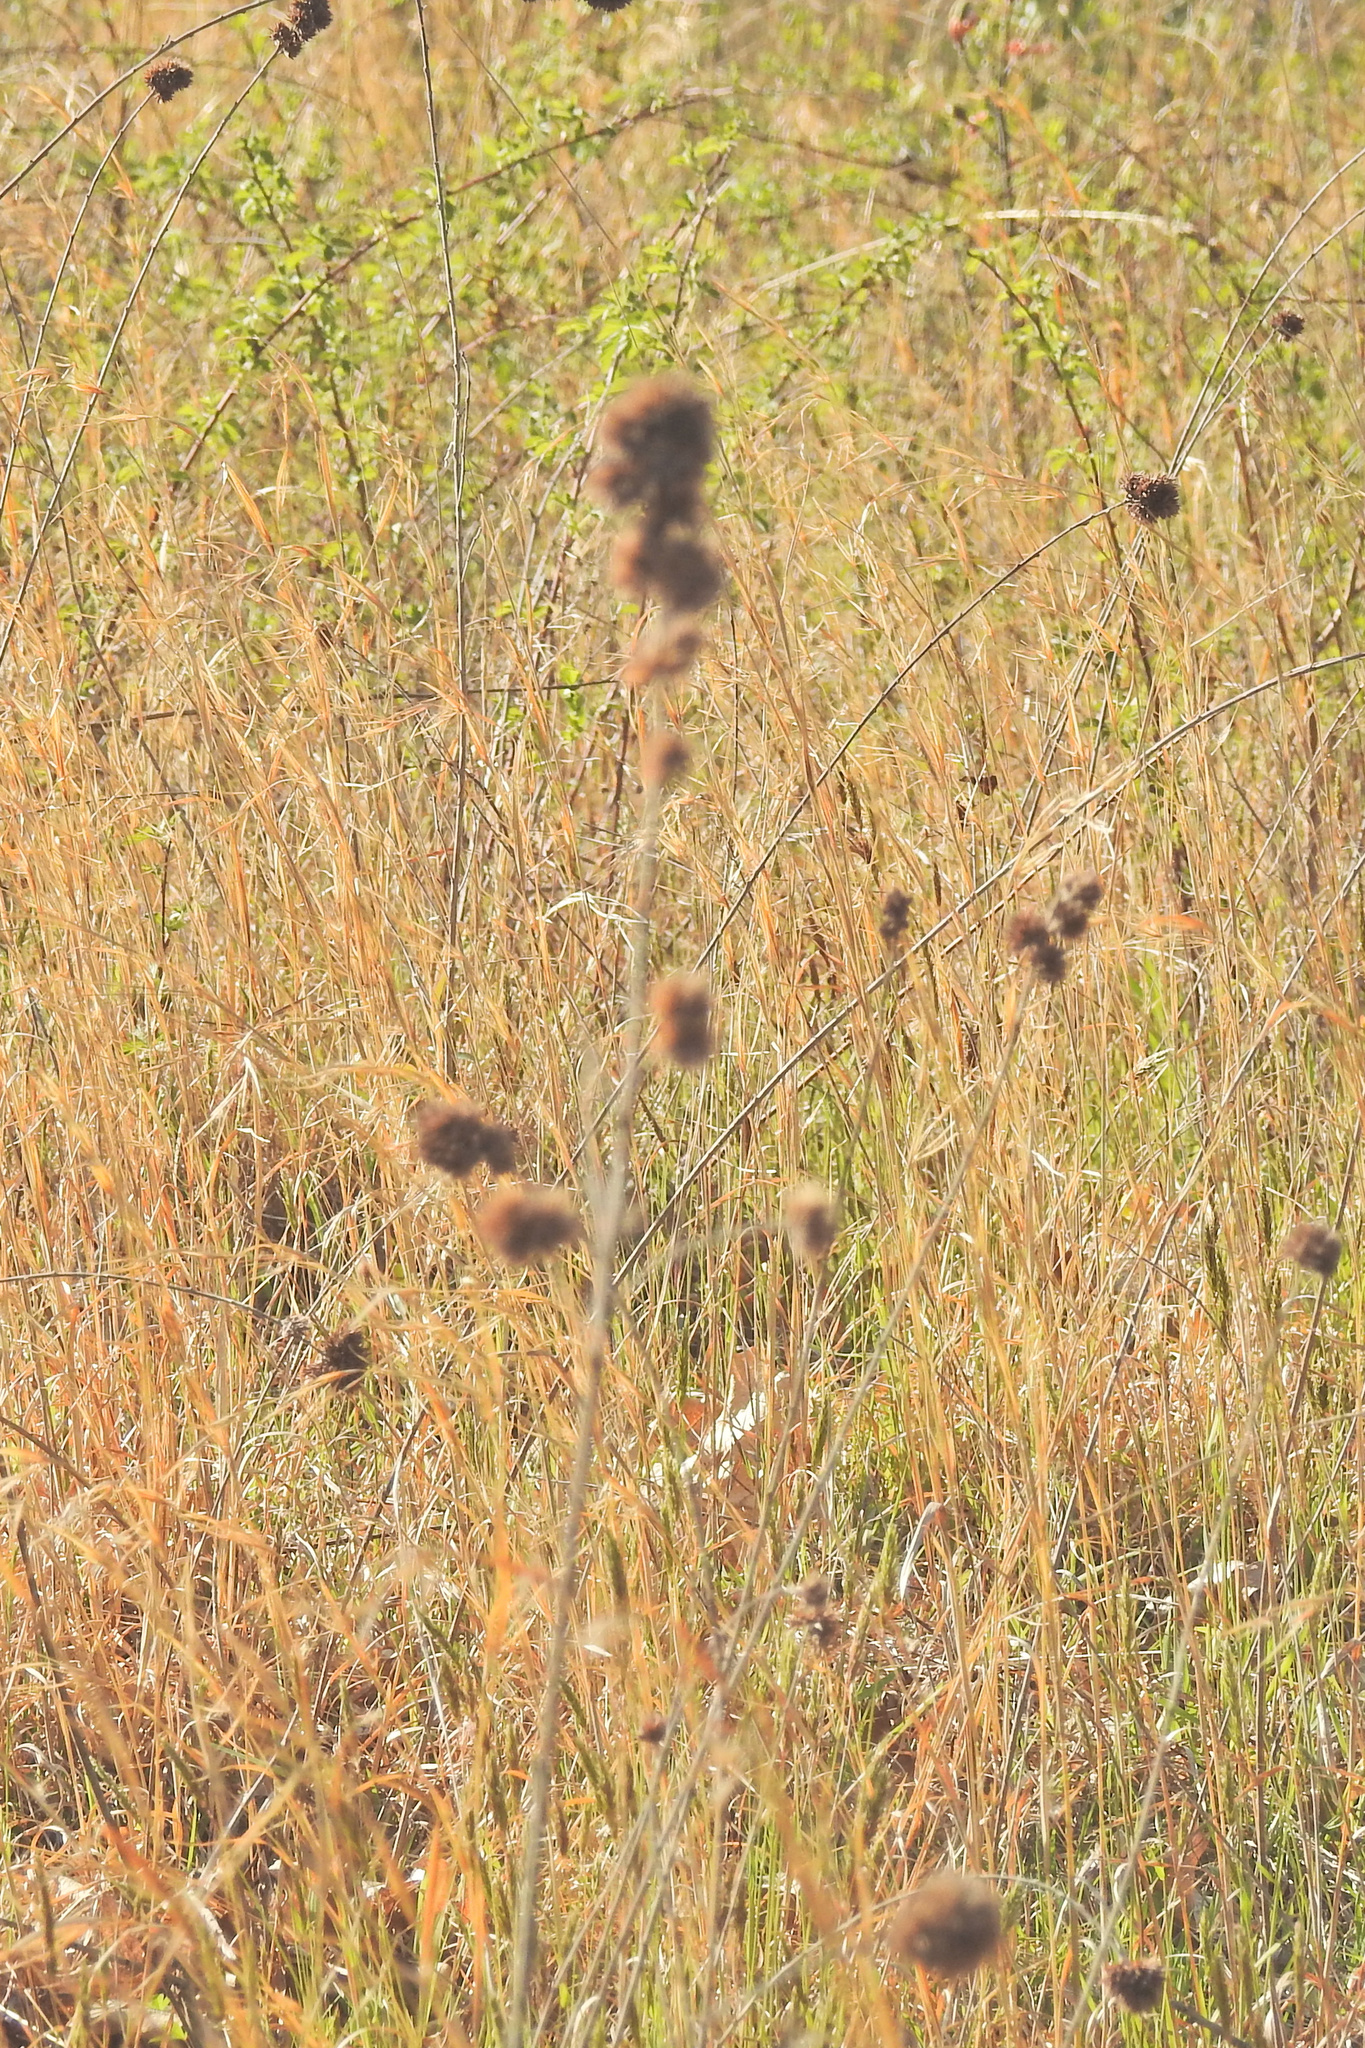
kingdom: Plantae
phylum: Tracheophyta
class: Magnoliopsida
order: Fabales
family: Fabaceae
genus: Lespedeza
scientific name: Lespedeza capitata
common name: Dusty clover
